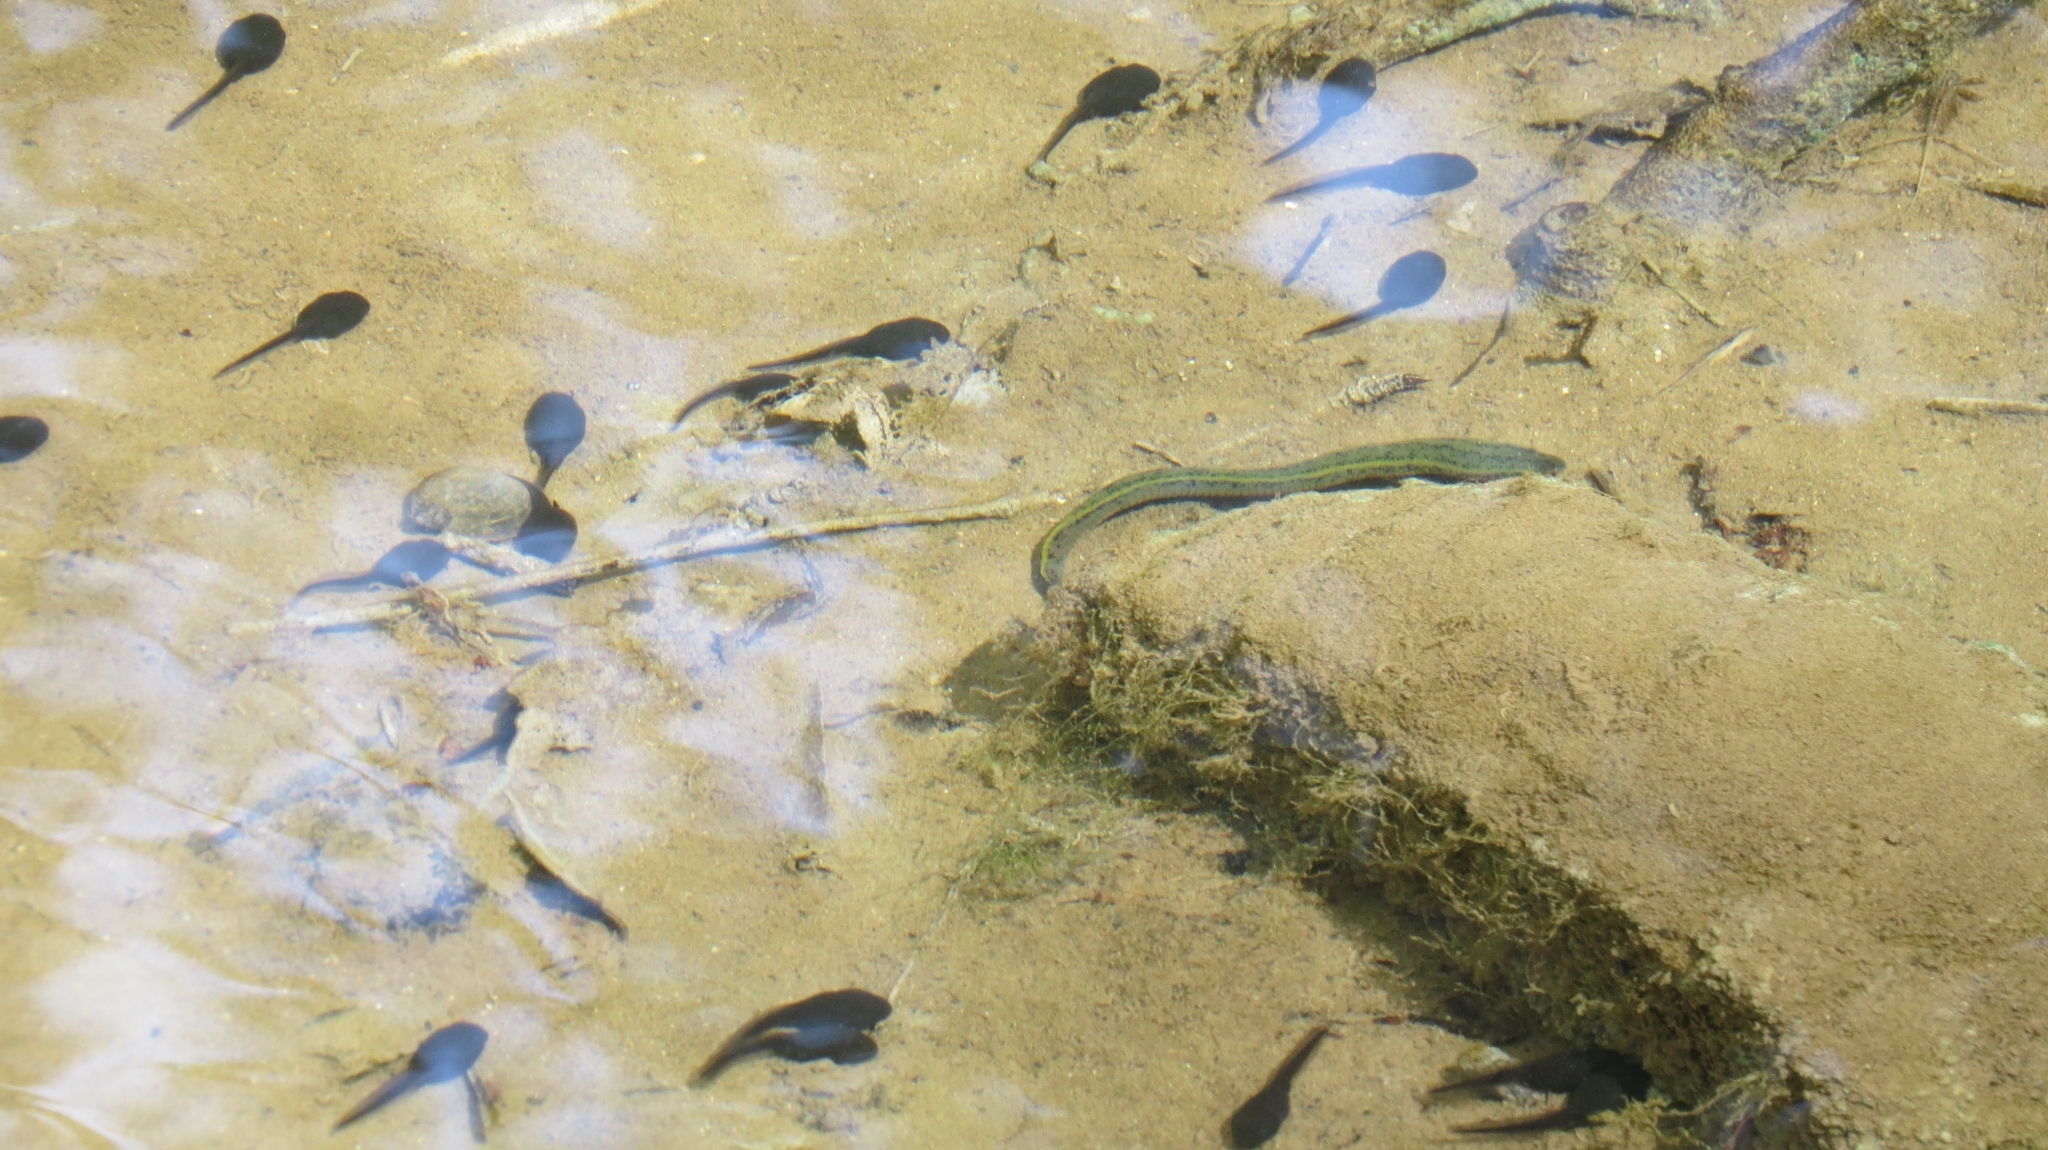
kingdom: Animalia
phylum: Annelida
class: Clitellata
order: Arhynchobdellida
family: Haemopidae
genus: Haemopis
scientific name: Haemopis sanguisuga
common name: Horse leech
